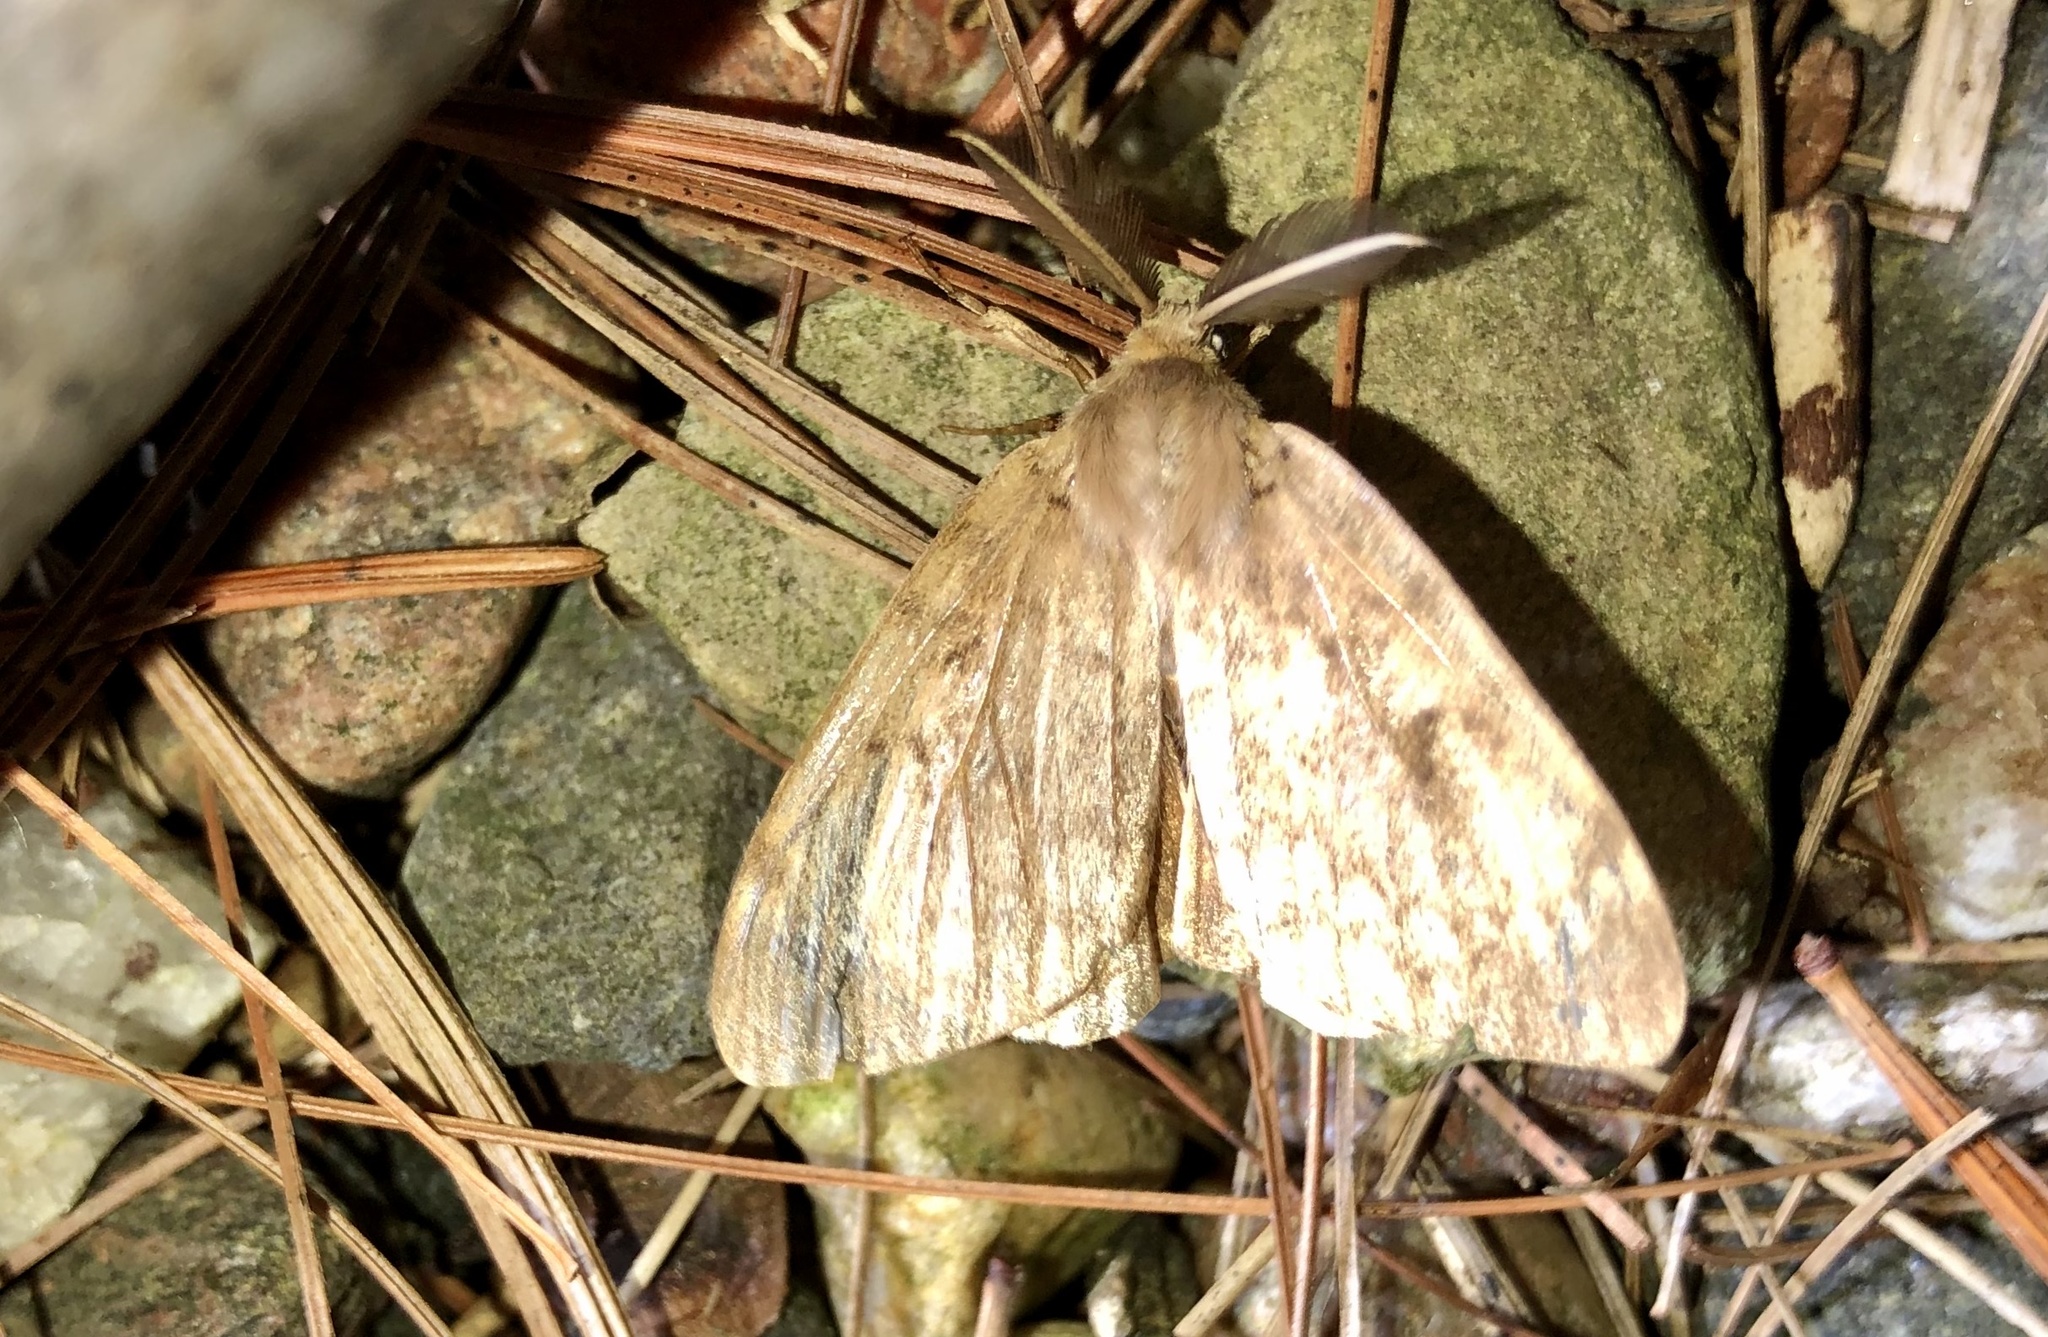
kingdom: Animalia
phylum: Arthropoda
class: Insecta
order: Lepidoptera
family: Erebidae
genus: Lymantria
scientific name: Lymantria dispar
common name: Gypsy moth
